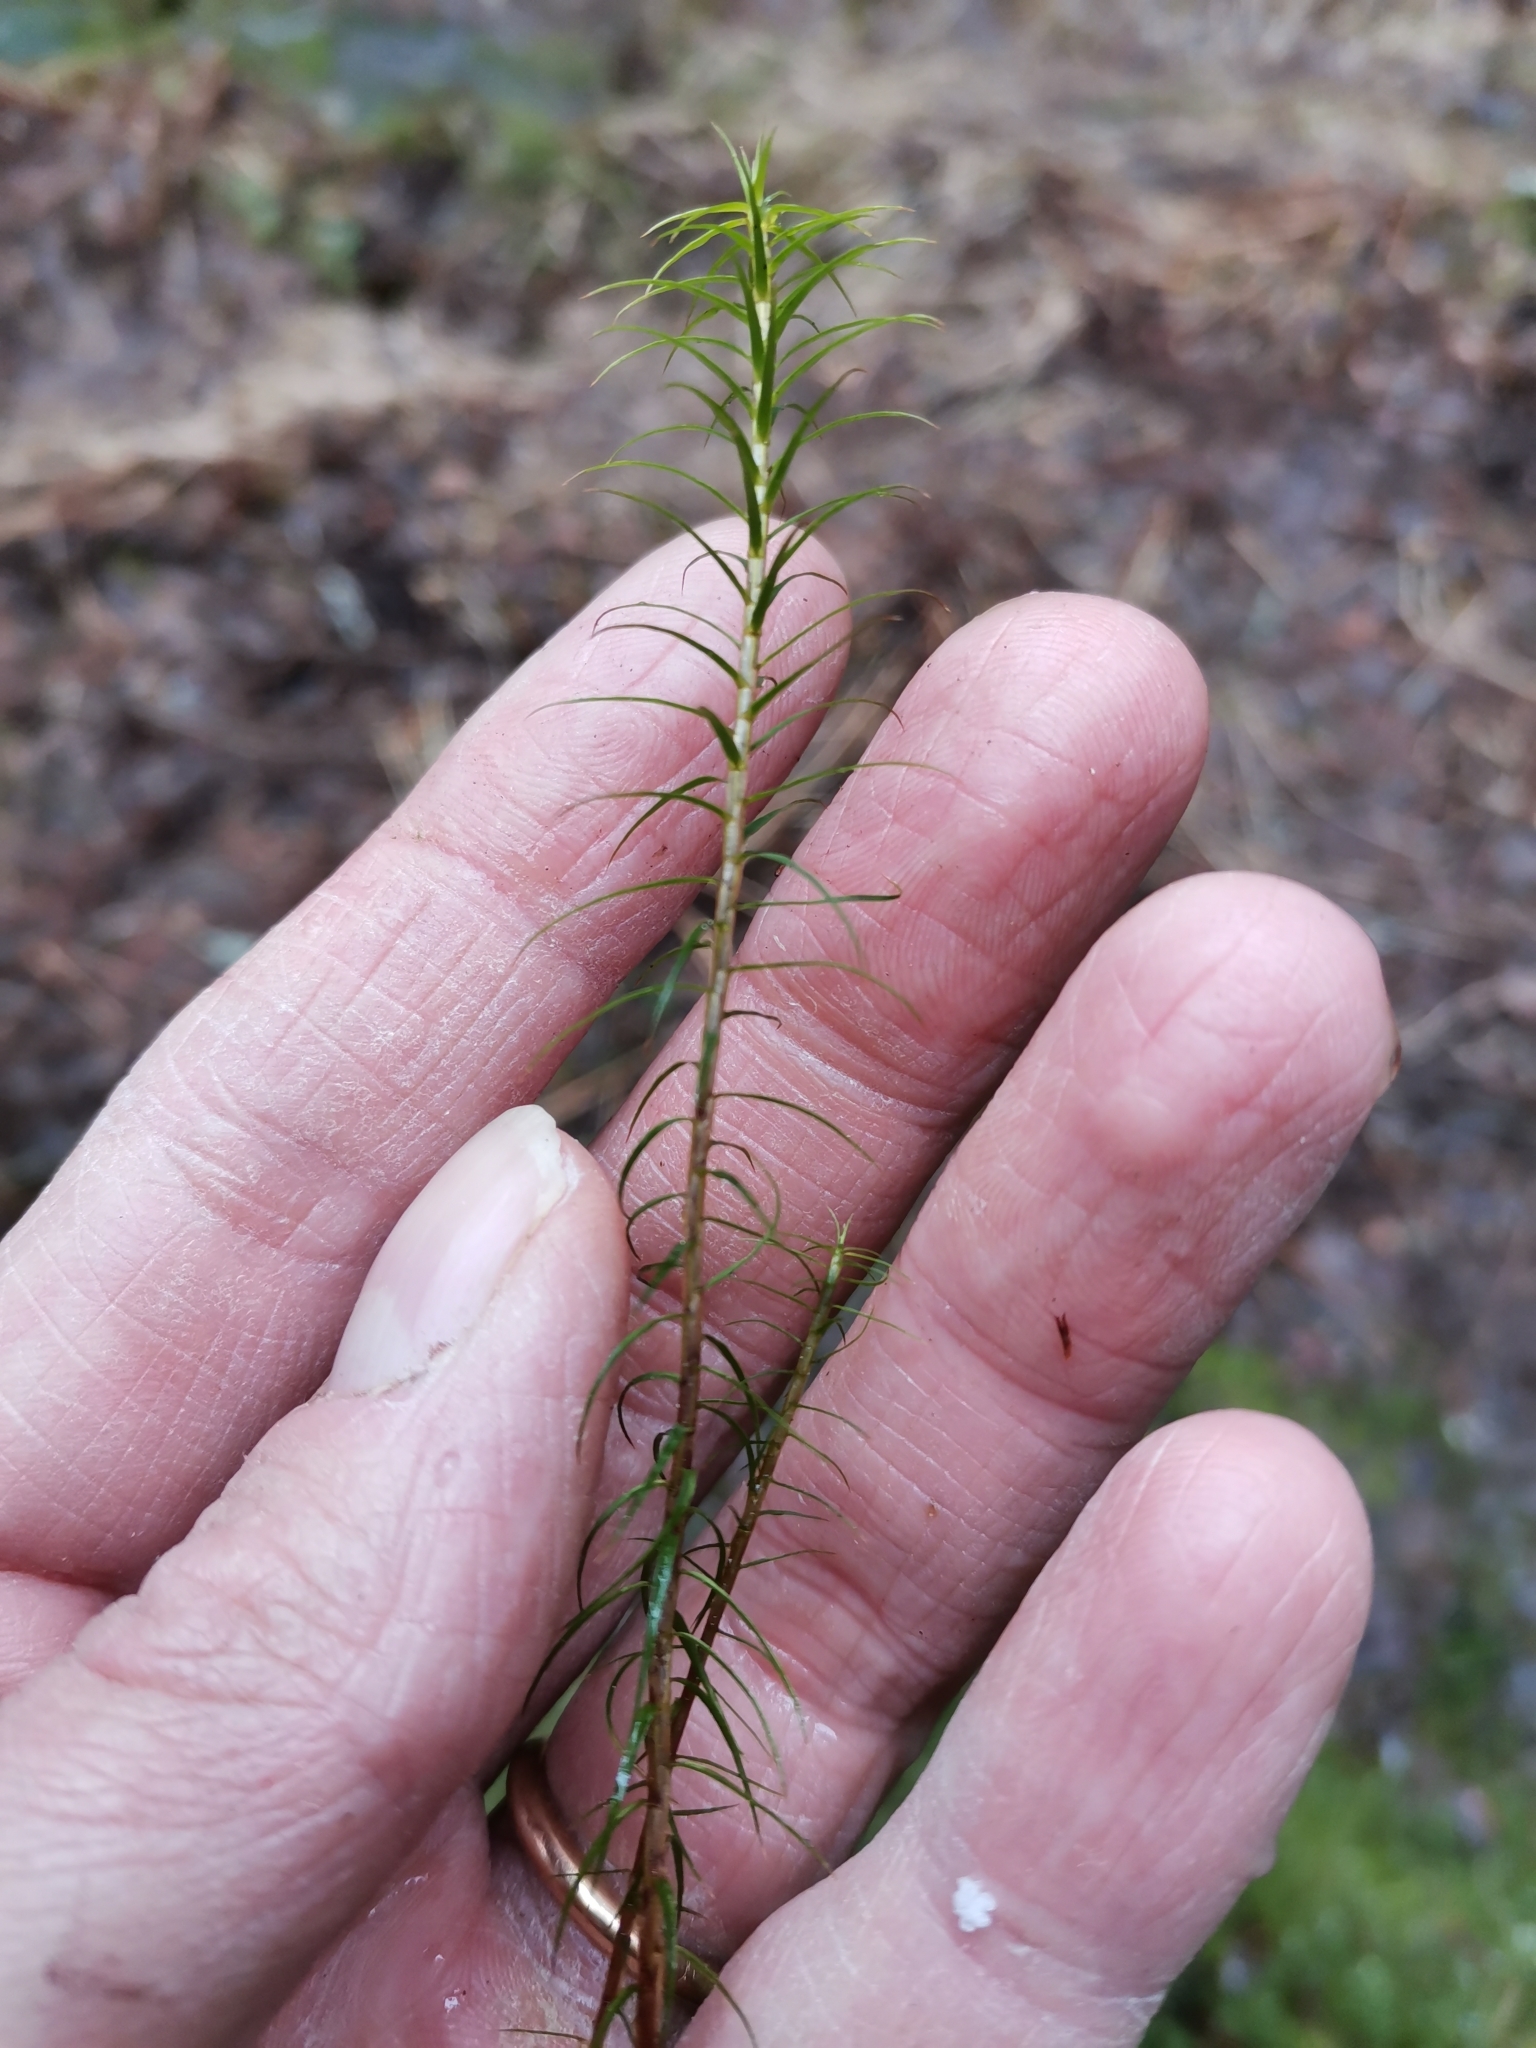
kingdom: Plantae
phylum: Bryophyta
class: Polytrichopsida
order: Polytrichales
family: Polytrichaceae
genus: Polytrichum
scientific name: Polytrichum commune
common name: Common haircap
